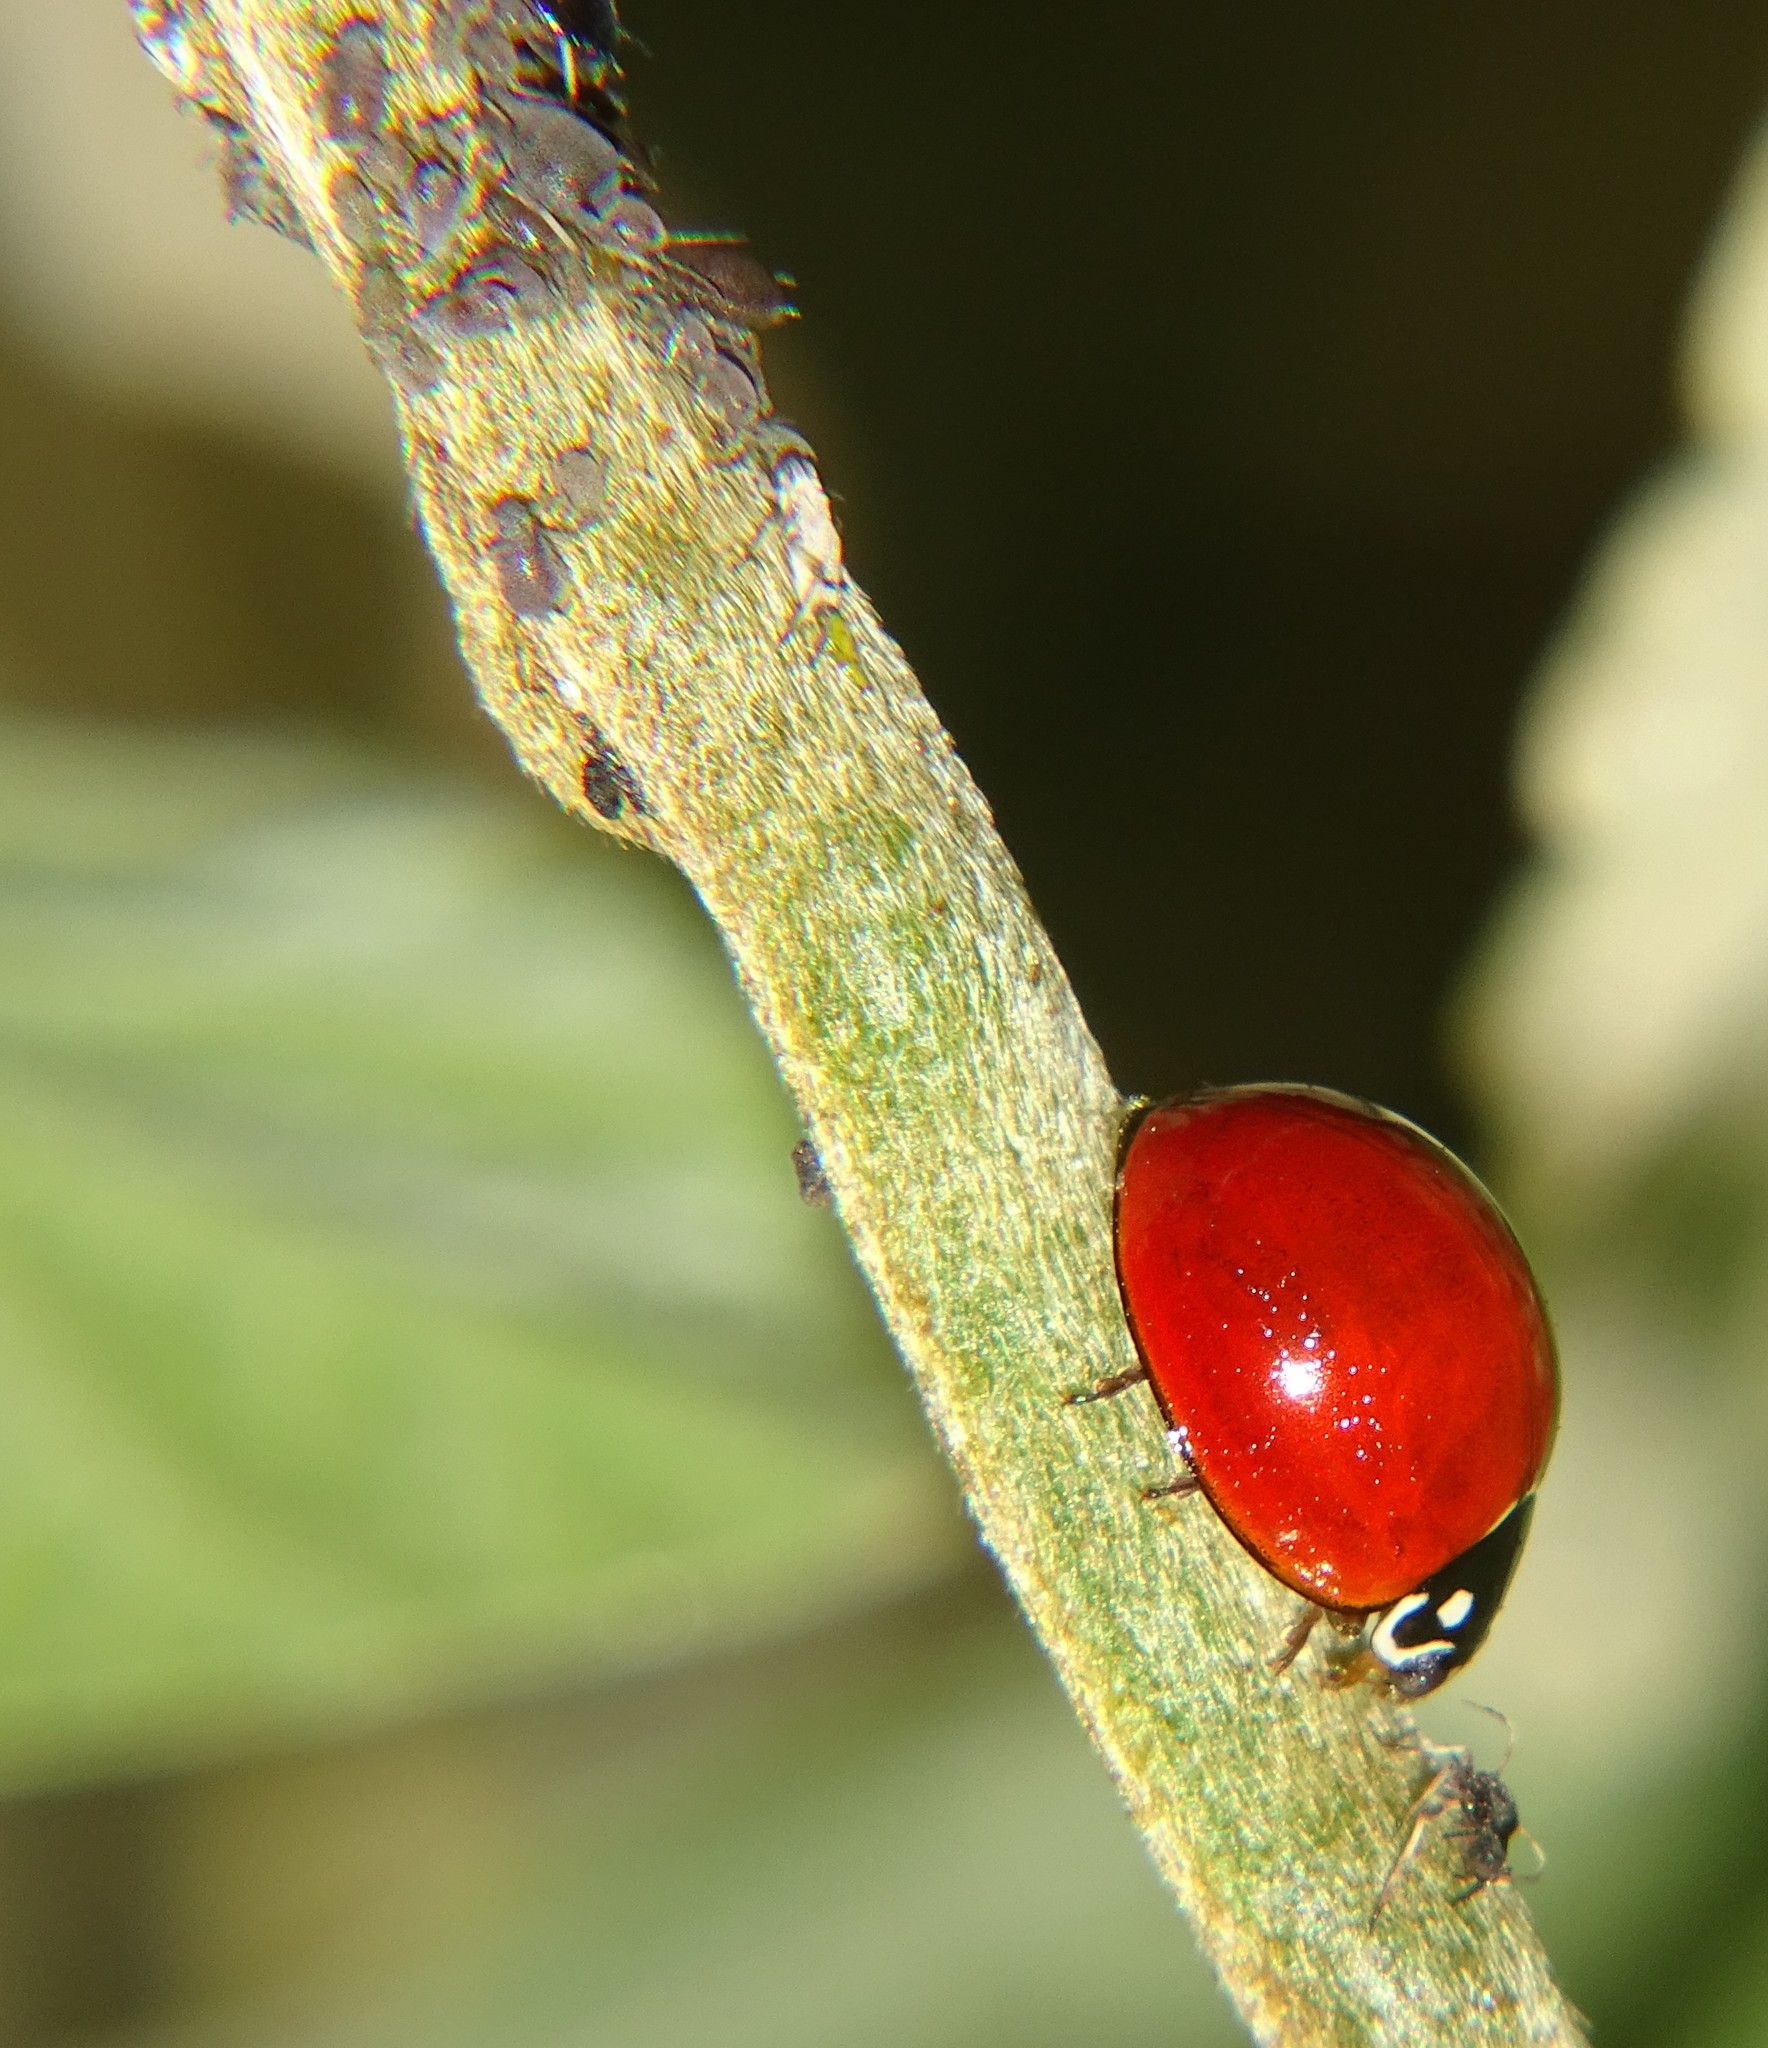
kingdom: Animalia
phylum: Arthropoda
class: Insecta
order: Coleoptera
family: Coccinellidae
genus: Cycloneda
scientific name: Cycloneda sanguinea
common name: Ladybird beetle
